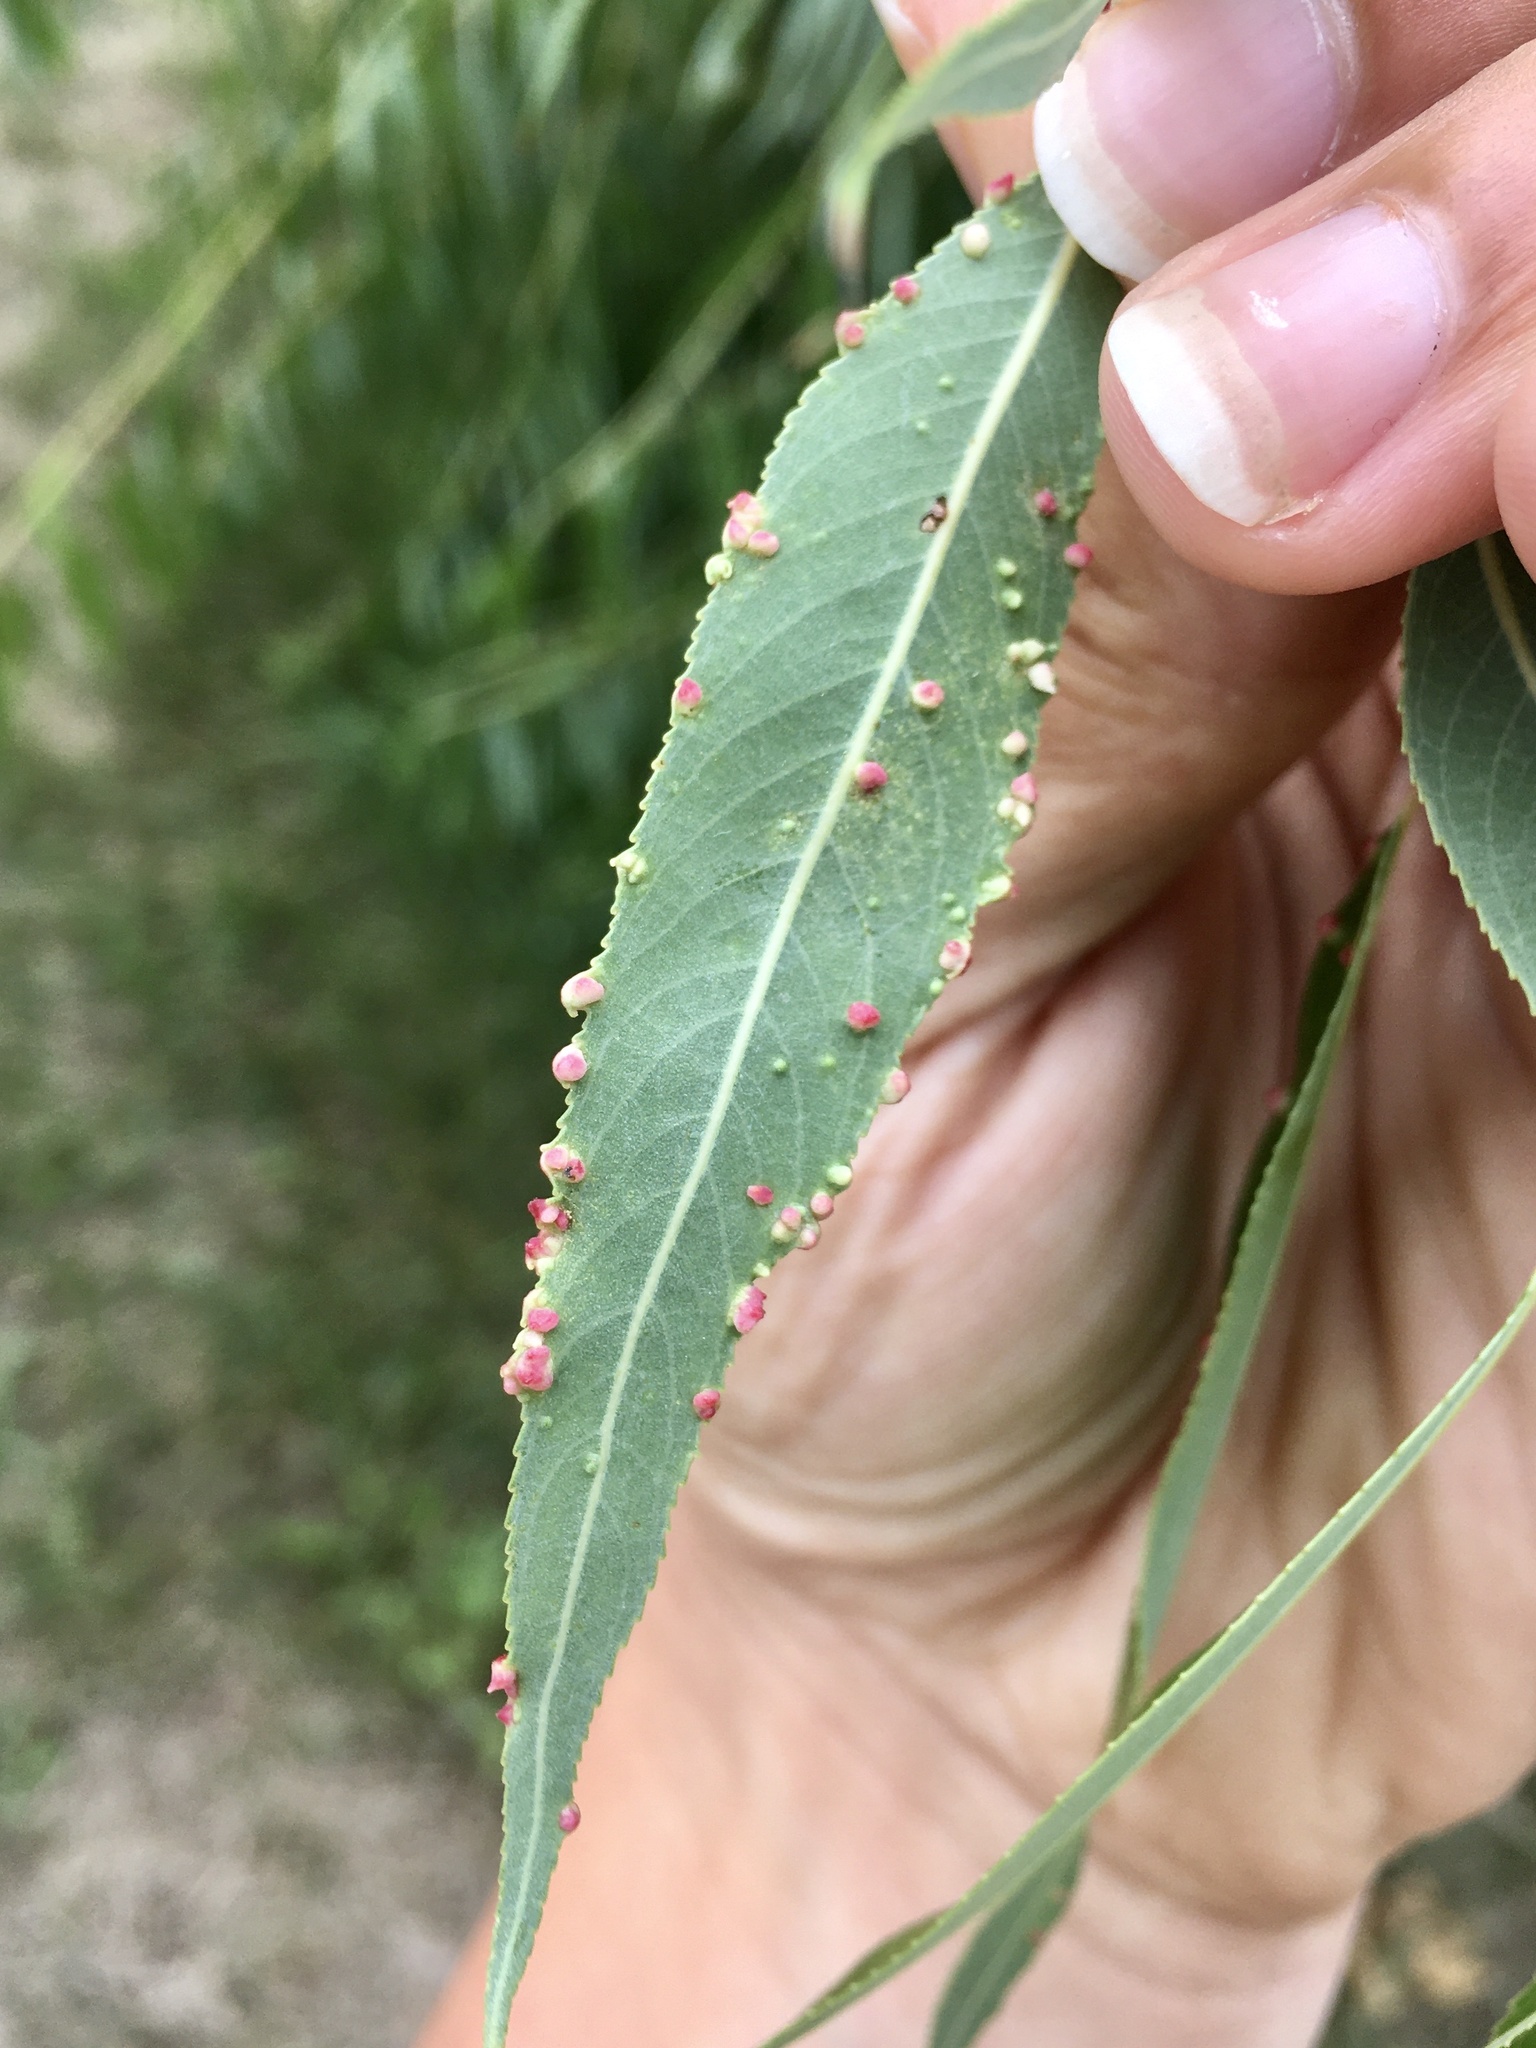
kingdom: Animalia
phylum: Arthropoda
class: Arachnida
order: Trombidiformes
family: Eriophyidae
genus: Aculus
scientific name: Aculus tetanothrix
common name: Willow bead gall mite
